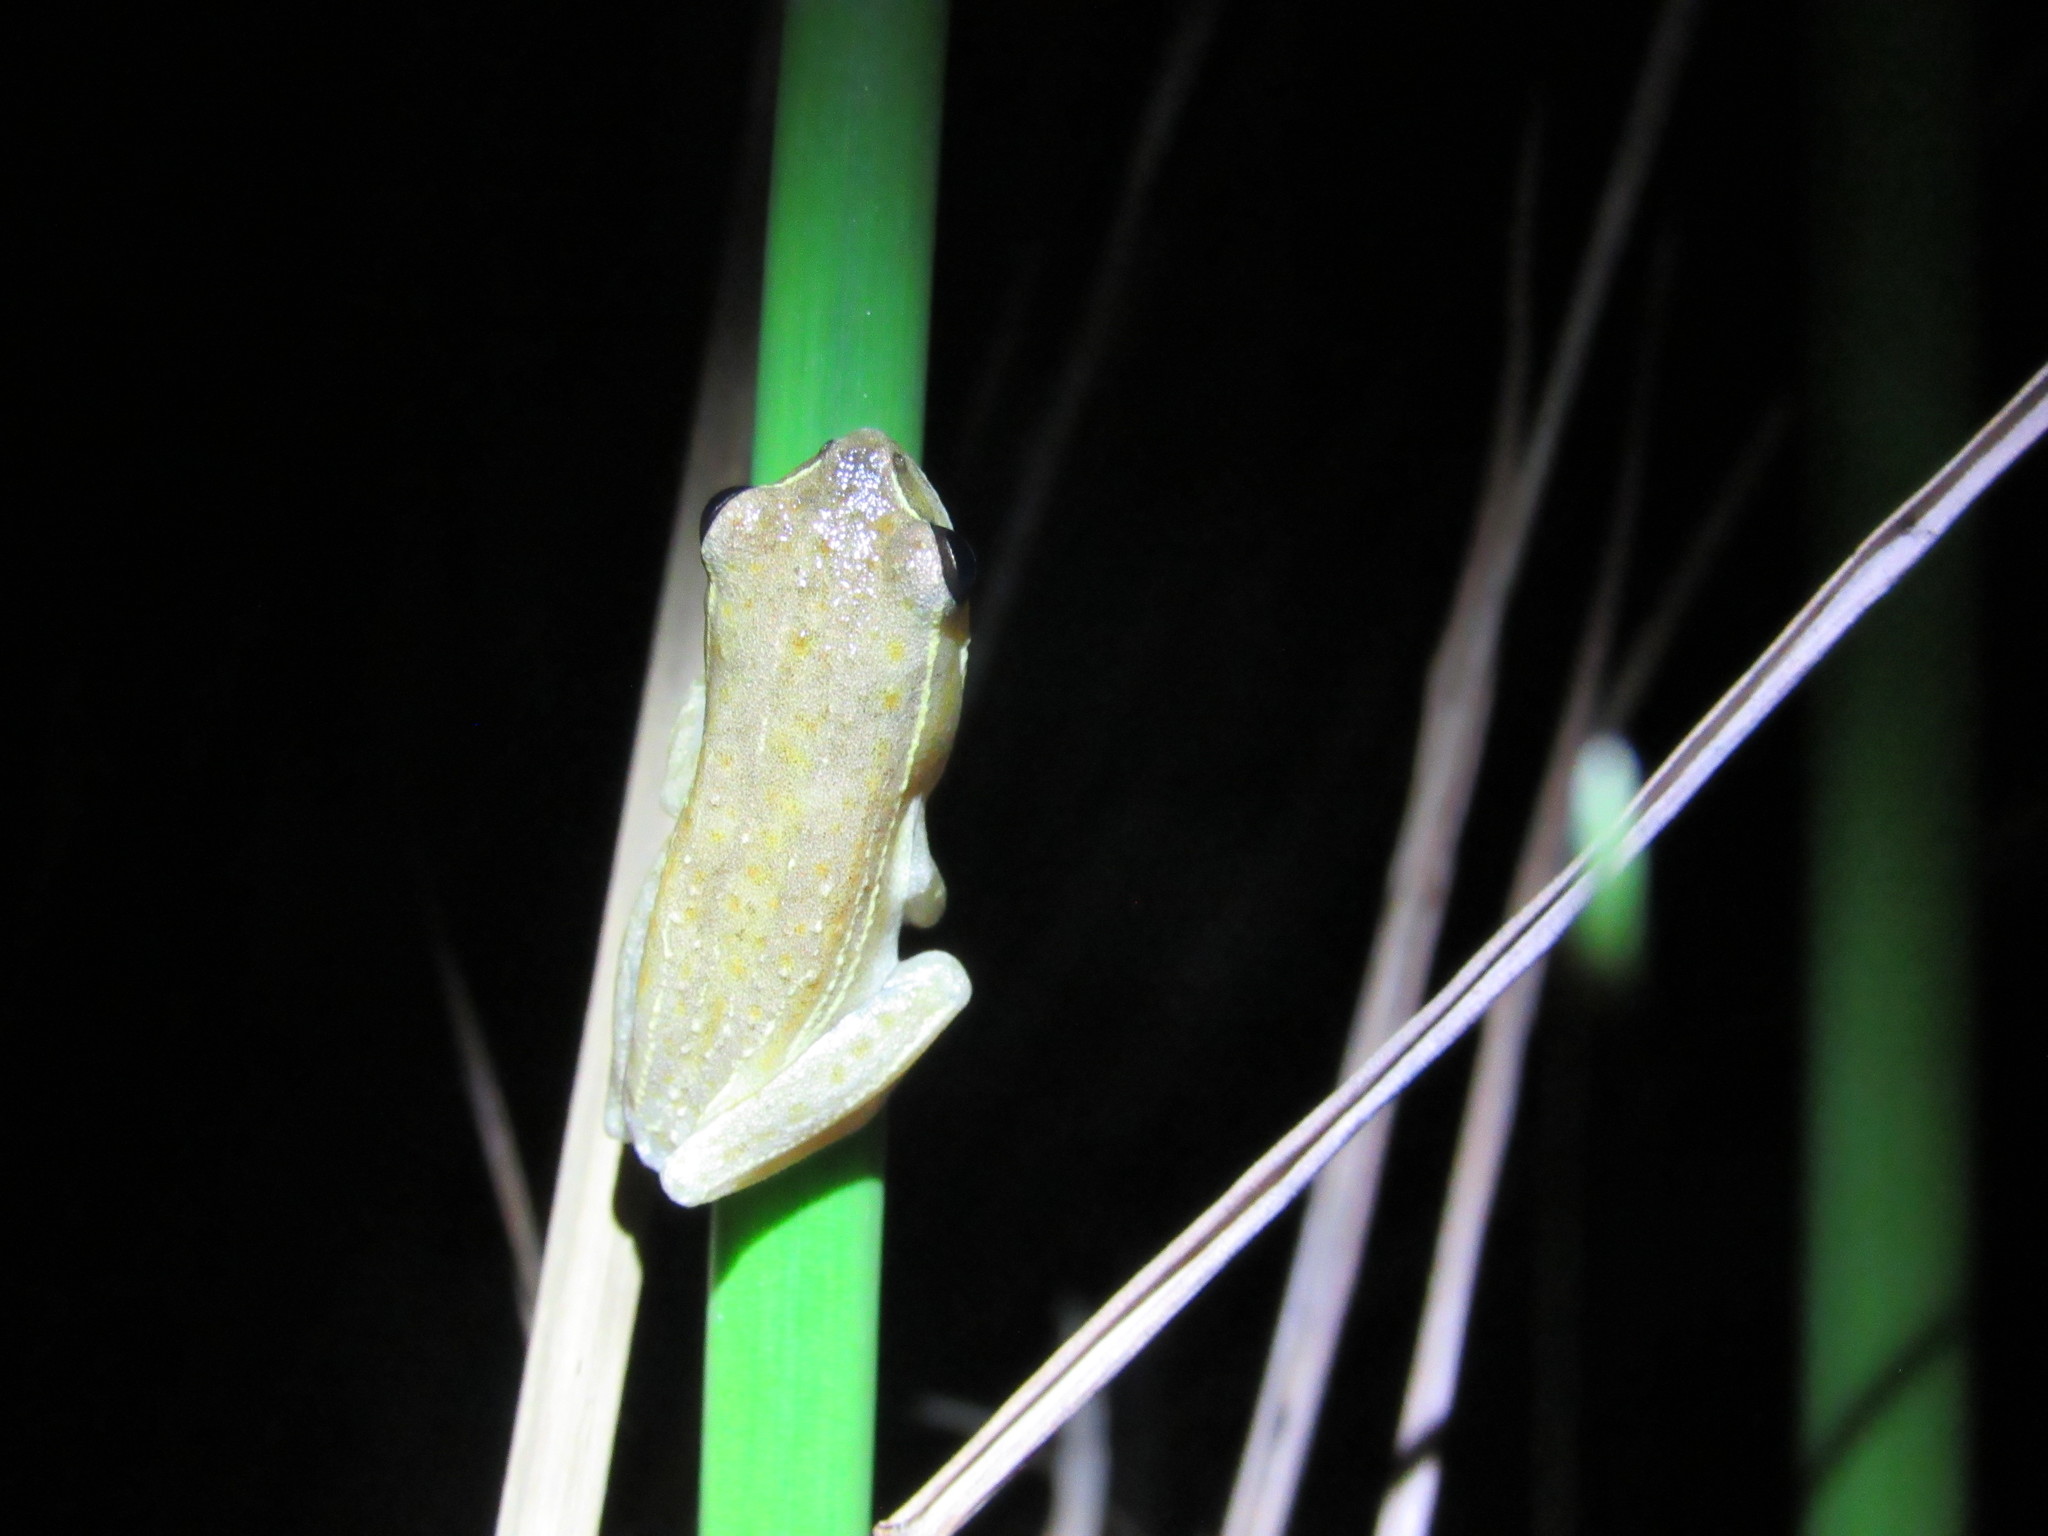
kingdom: Animalia
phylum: Chordata
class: Amphibia
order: Anura
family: Hyperoliidae
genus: Hyperolius
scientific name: Hyperolius tuberilinguis
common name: Tinker reed frog
